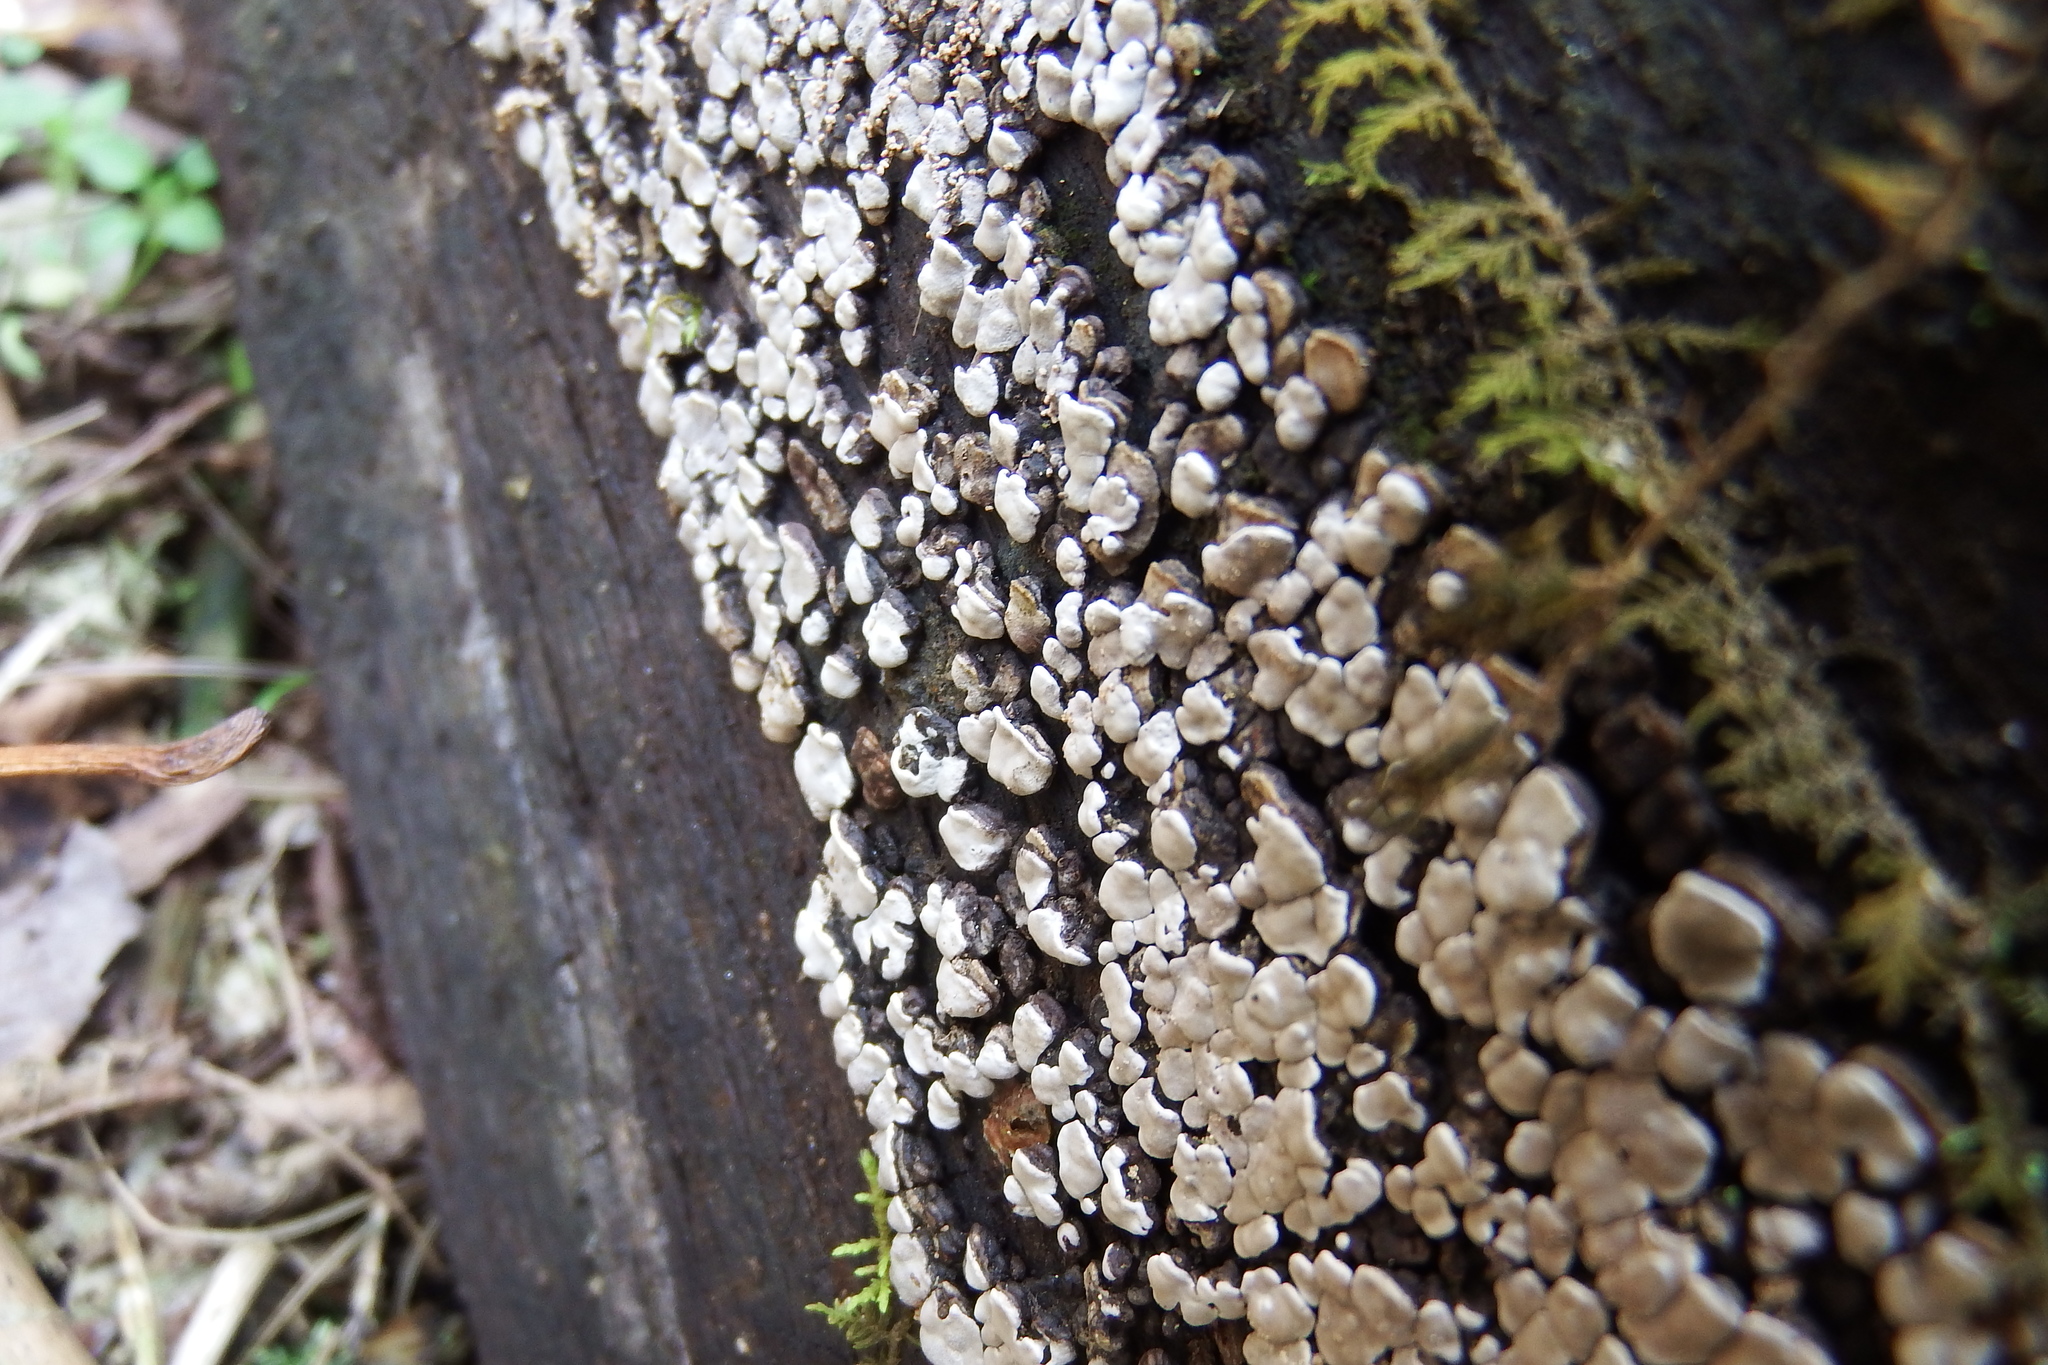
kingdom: Fungi
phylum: Basidiomycota
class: Agaricomycetes
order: Russulales
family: Stereaceae
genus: Xylobolus
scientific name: Xylobolus frustulatus
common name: Ceramic parchment
